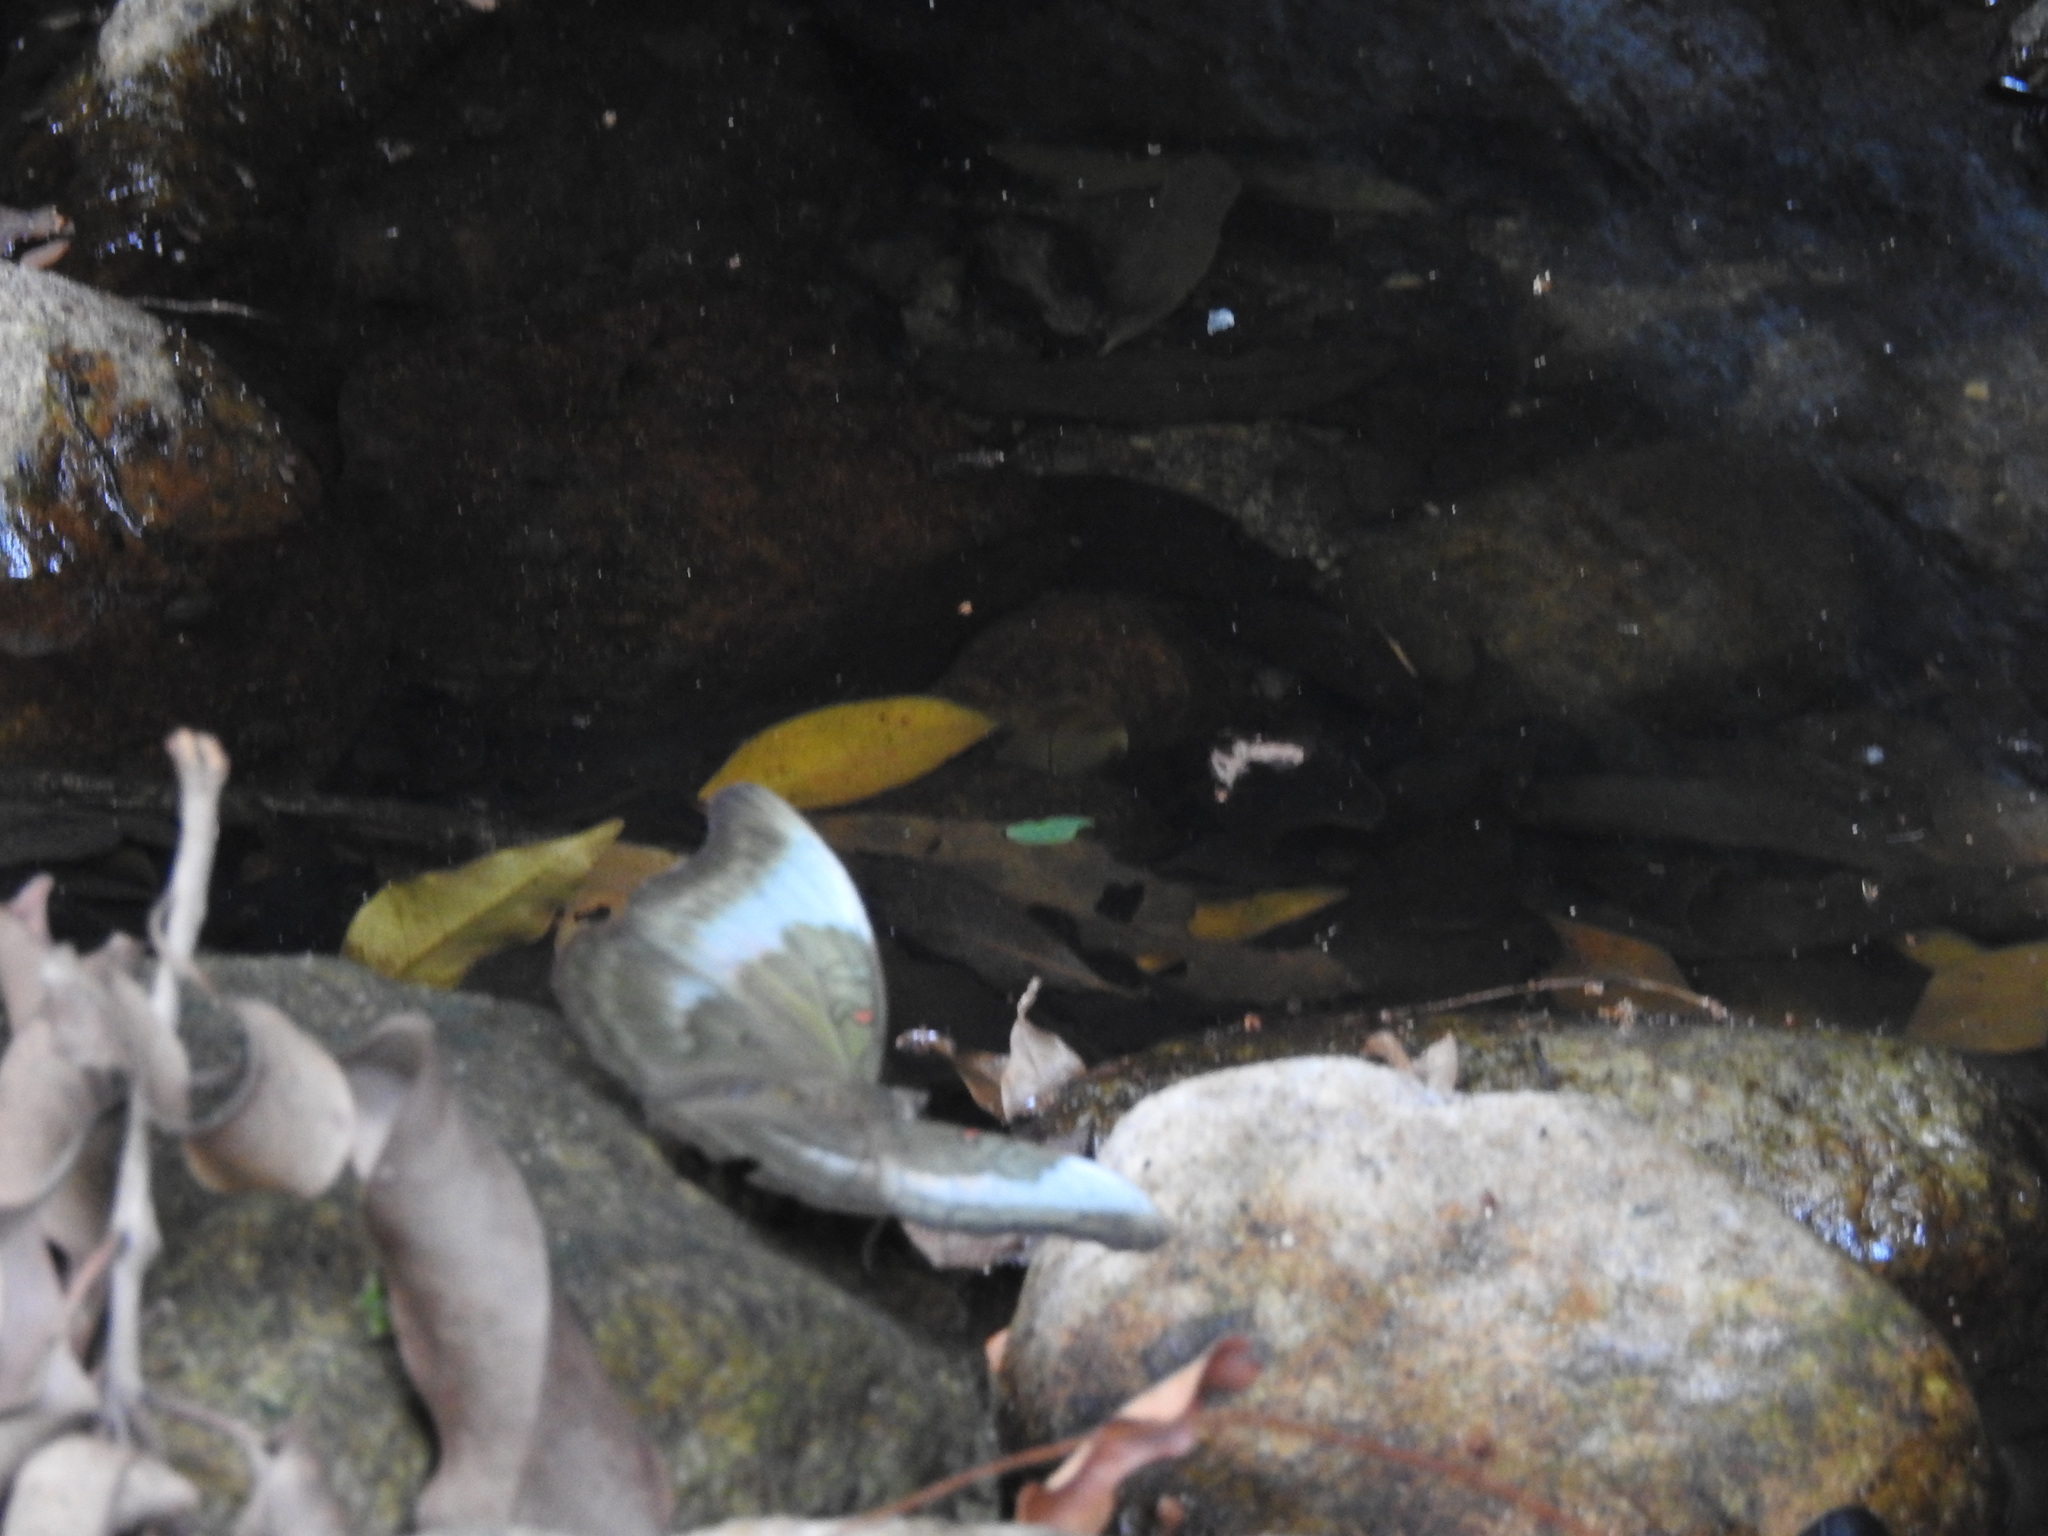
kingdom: Animalia
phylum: Arthropoda
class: Insecta
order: Lepidoptera
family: Nymphalidae
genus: Euthalia
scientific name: Euthalia Dophla evelina
